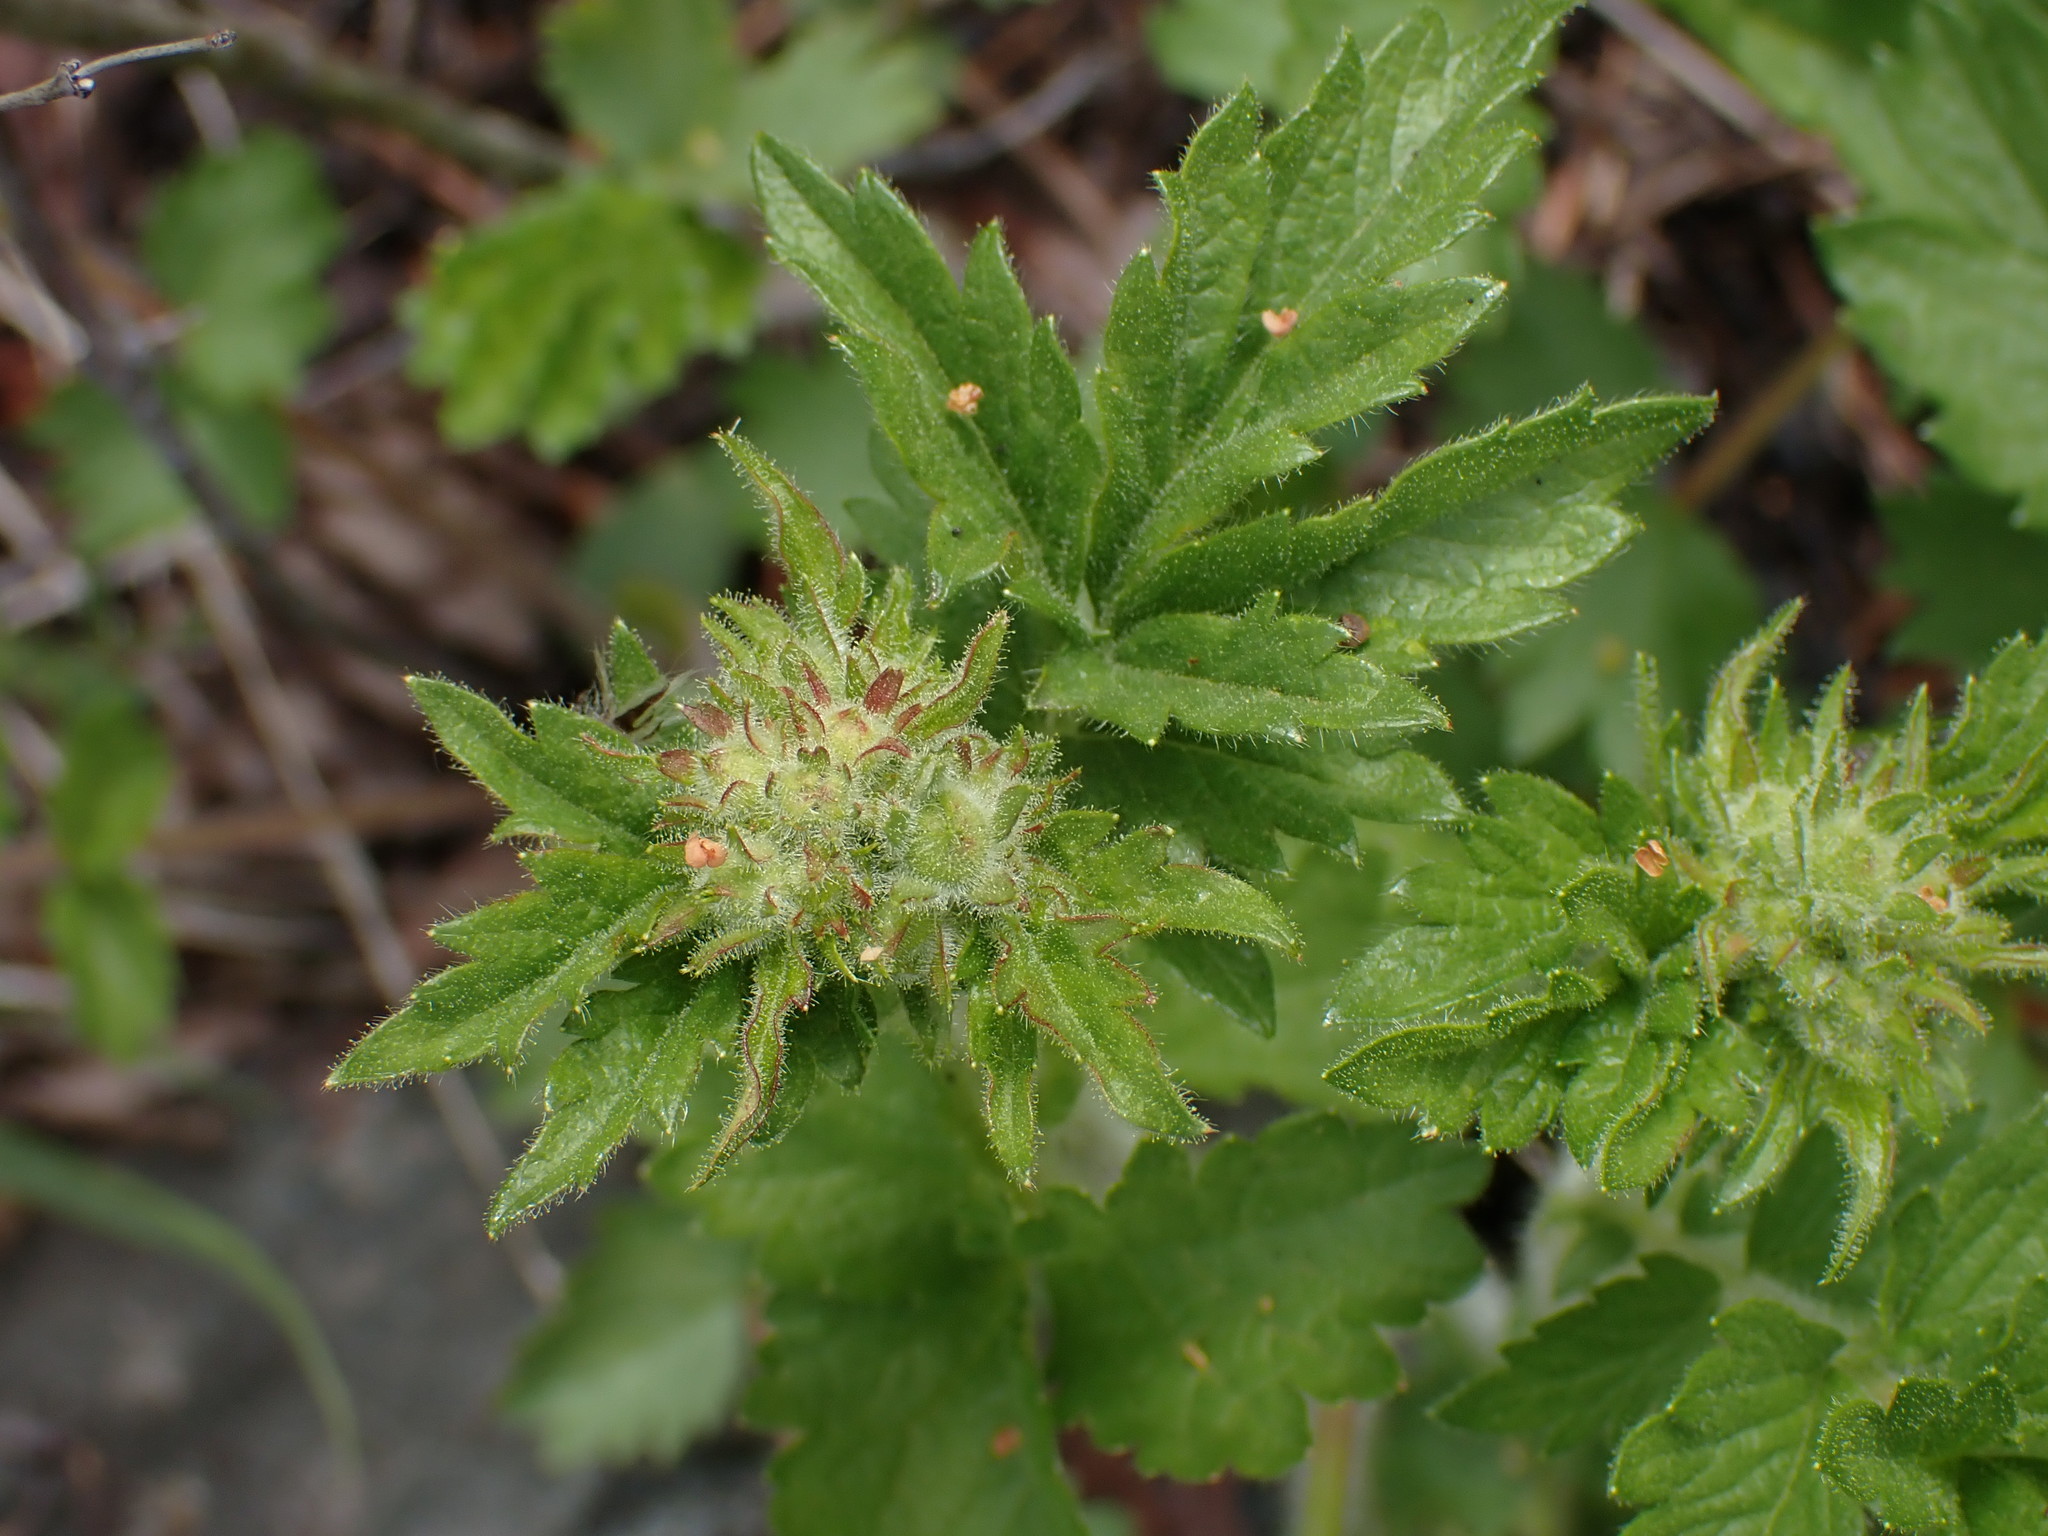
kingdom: Plantae
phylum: Tracheophyta
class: Magnoliopsida
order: Rosales
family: Rosaceae
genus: Drymocallis
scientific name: Drymocallis convallaria
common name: Cream cinquefoil
